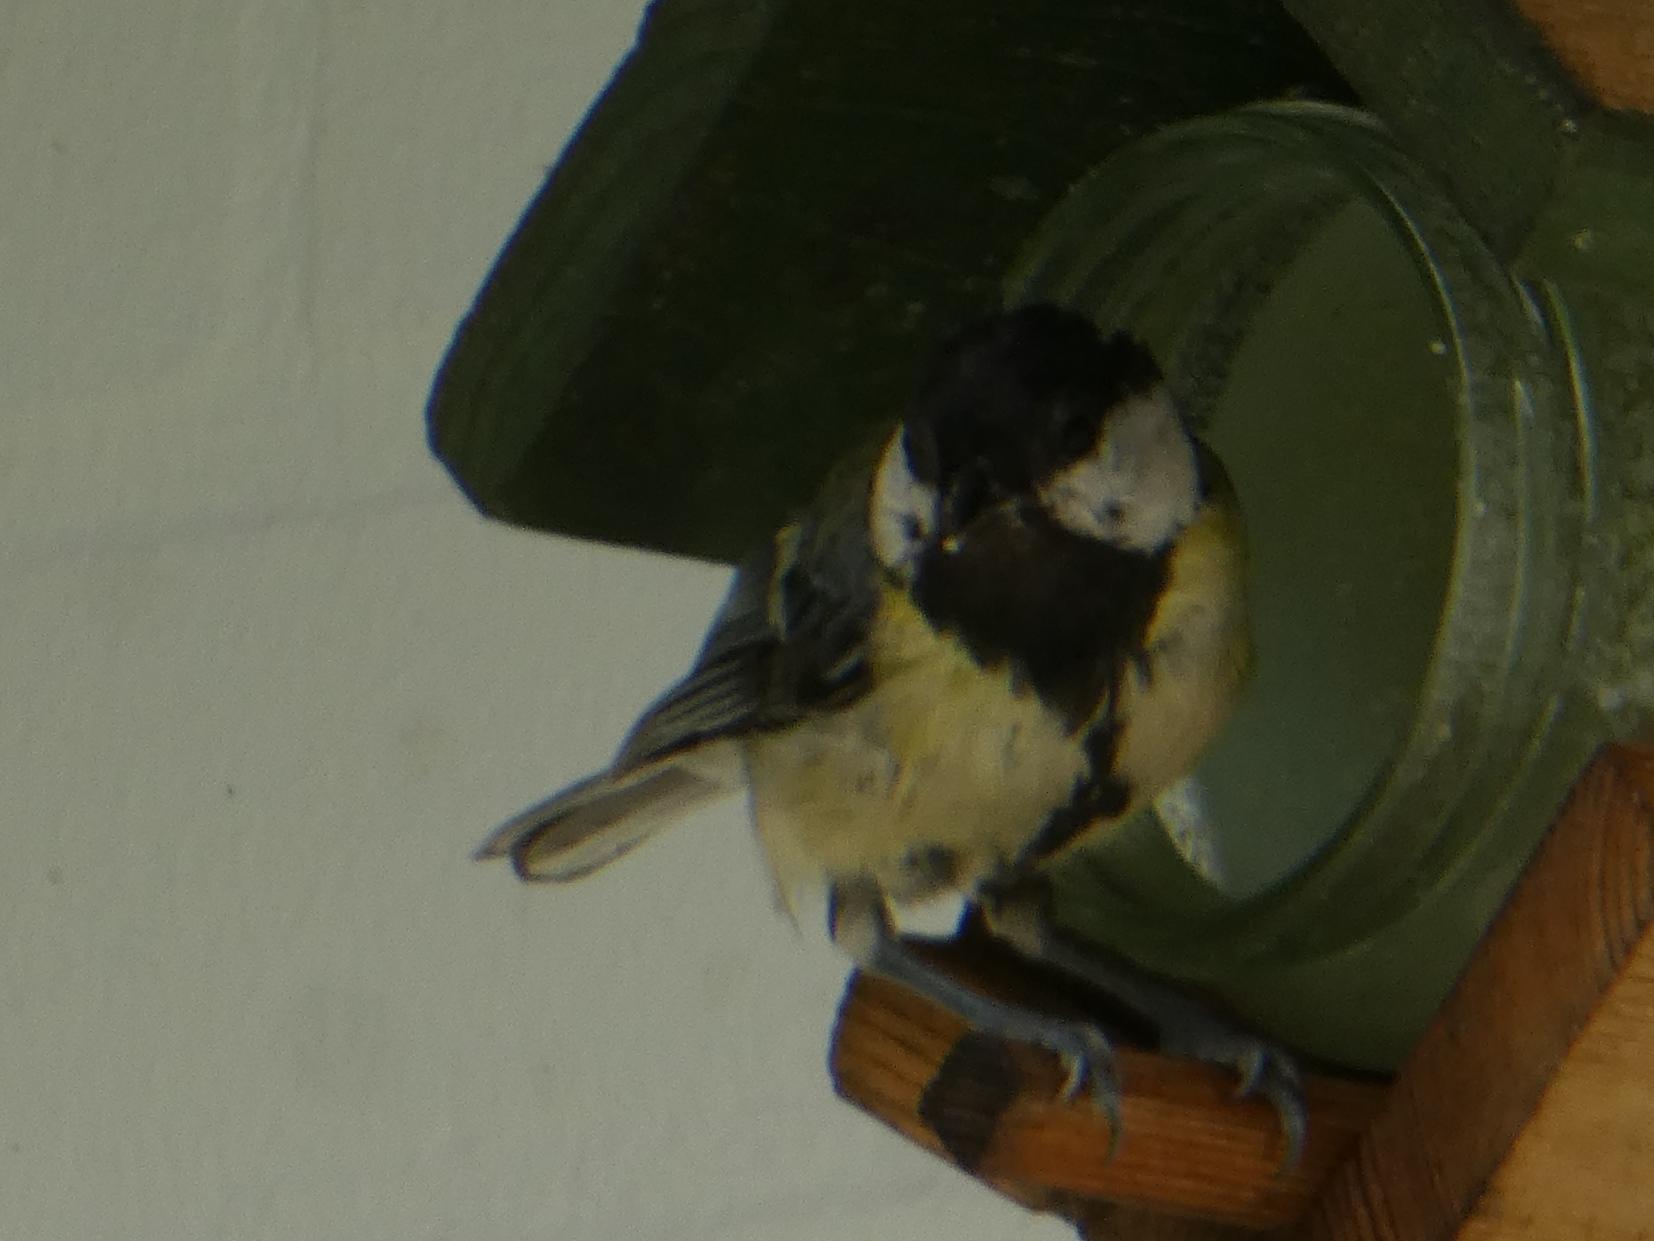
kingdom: Animalia
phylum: Chordata
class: Aves
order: Passeriformes
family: Paridae
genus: Parus
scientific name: Parus major
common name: Great tit
